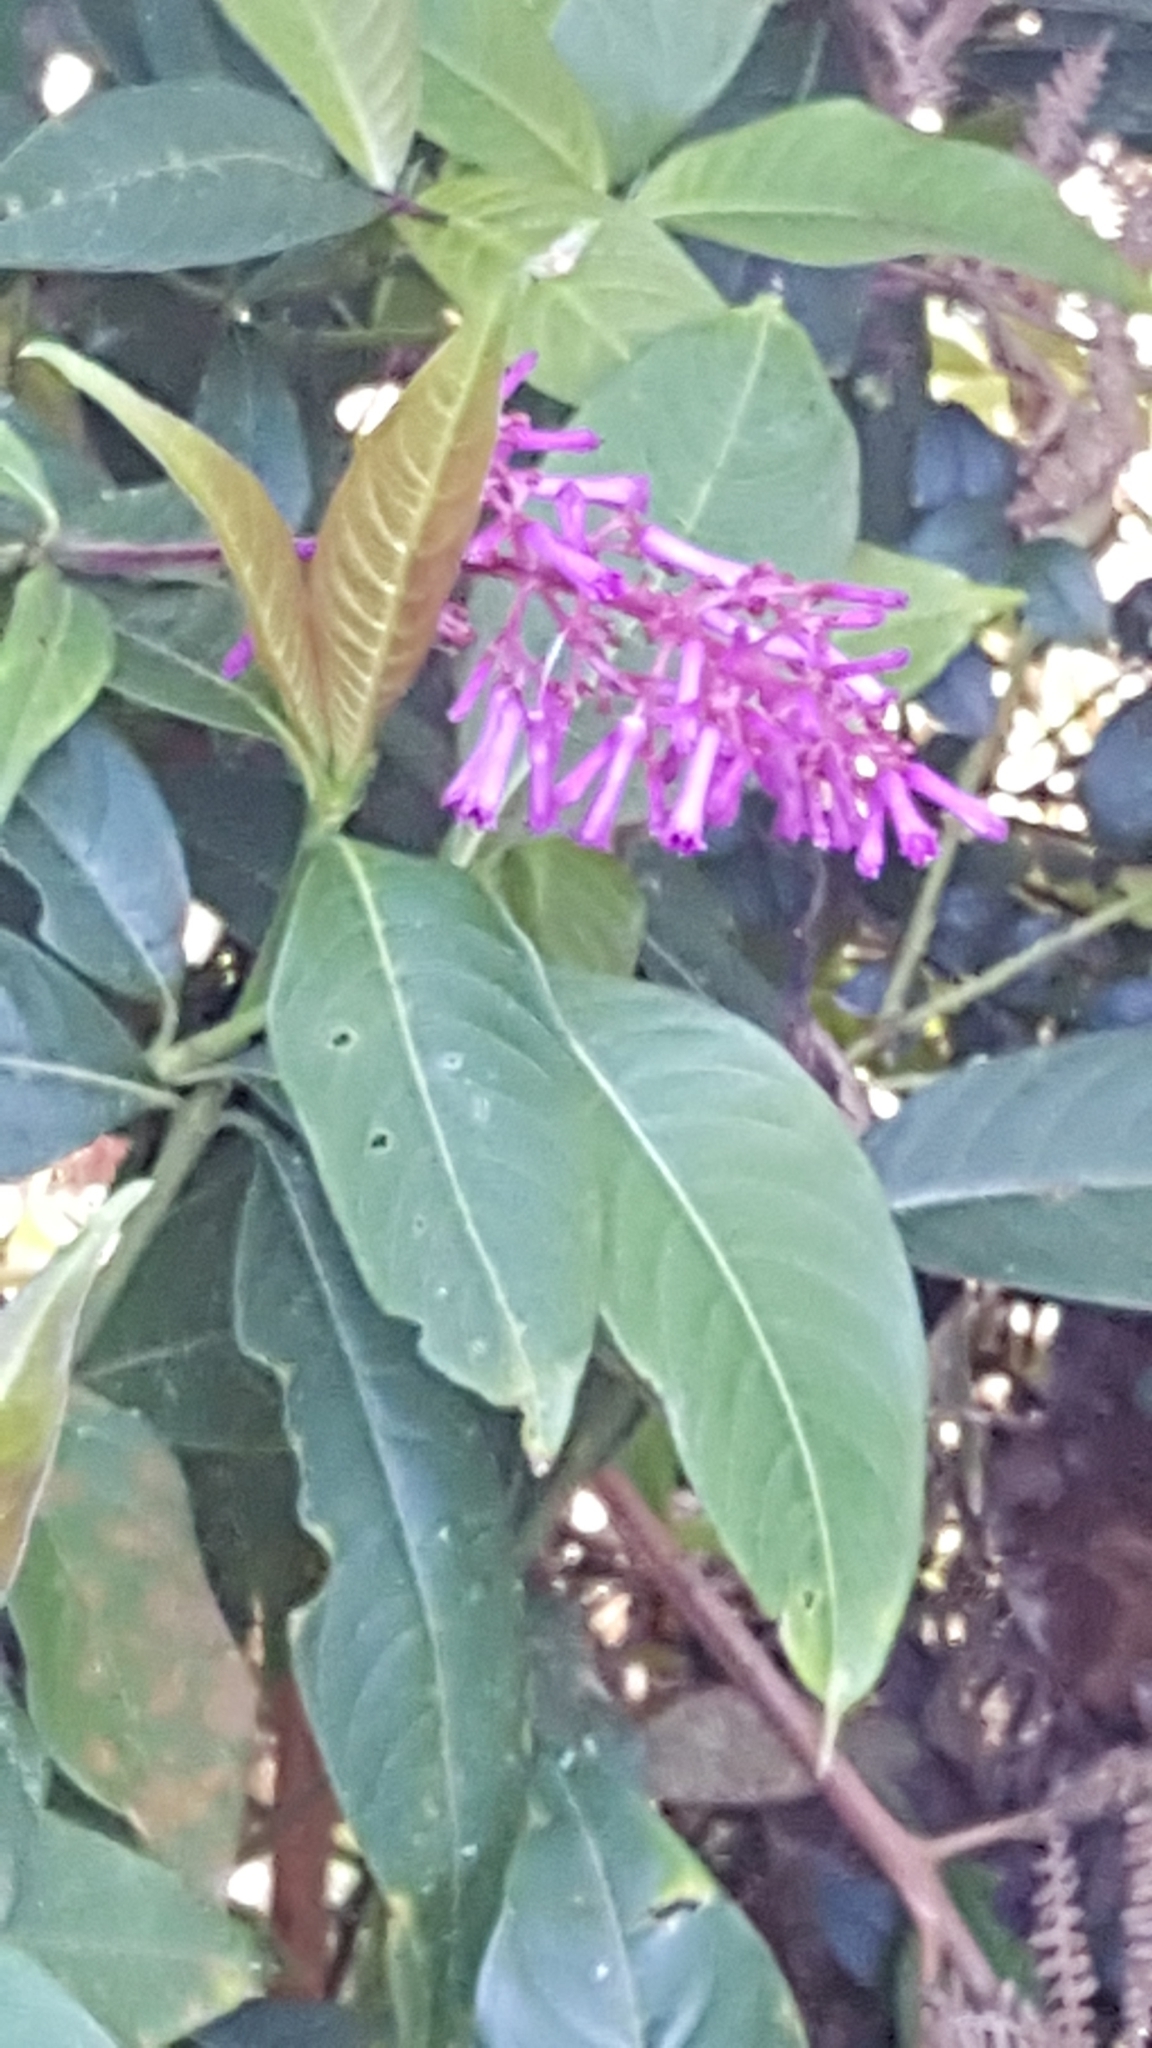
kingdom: Plantae
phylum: Tracheophyta
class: Magnoliopsida
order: Gentianales
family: Rubiaceae
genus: Palicourea
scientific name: Palicourea angustifolia
